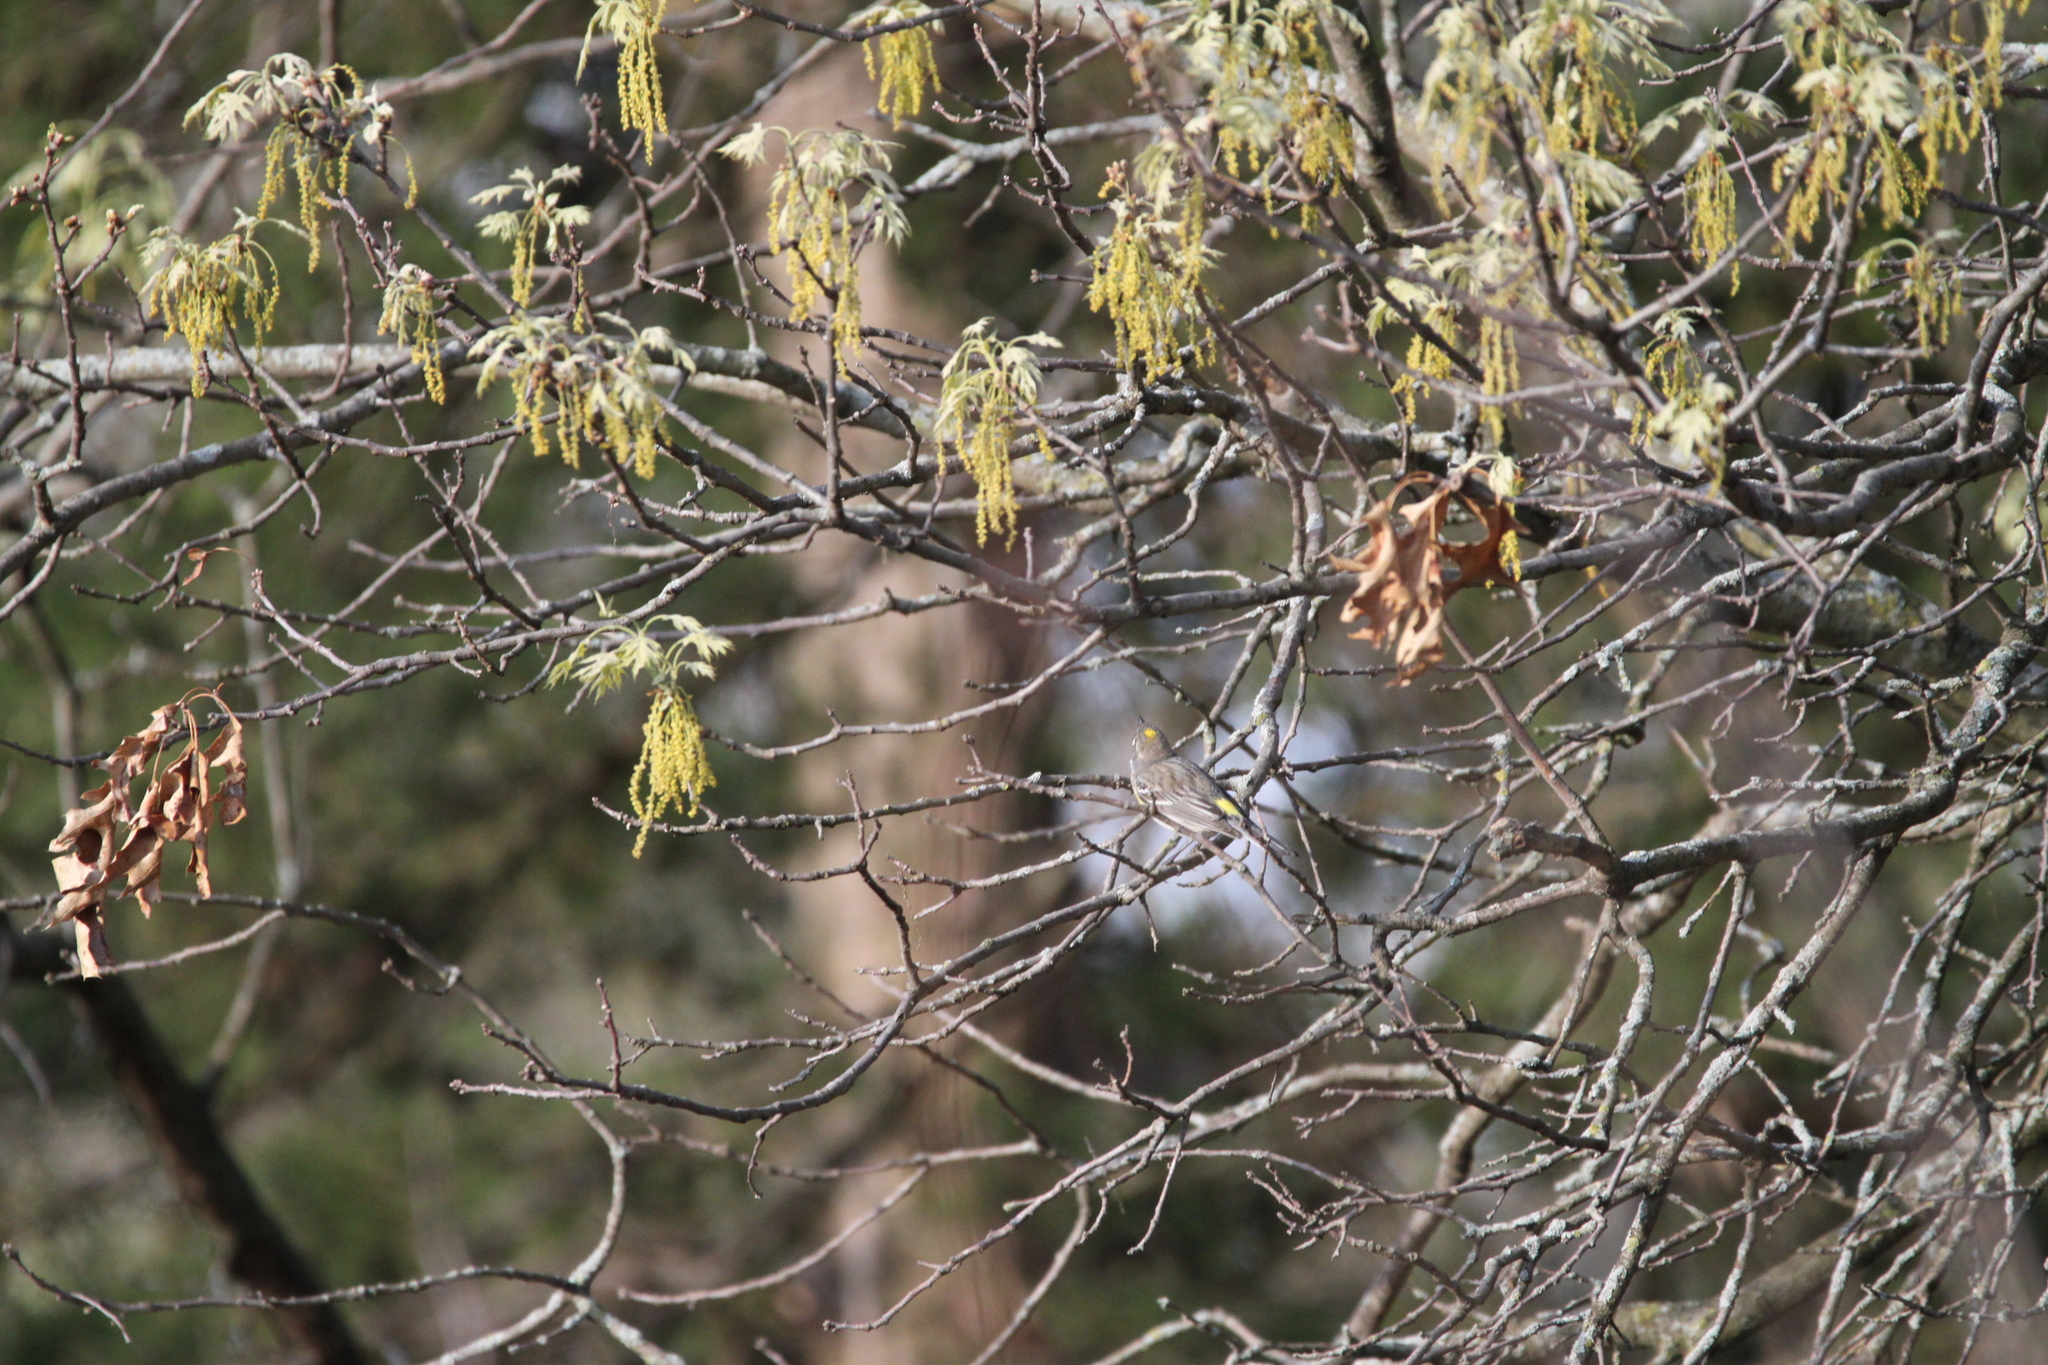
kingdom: Animalia
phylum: Chordata
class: Aves
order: Passeriformes
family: Parulidae
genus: Setophaga
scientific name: Setophaga coronata
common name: Myrtle warbler
